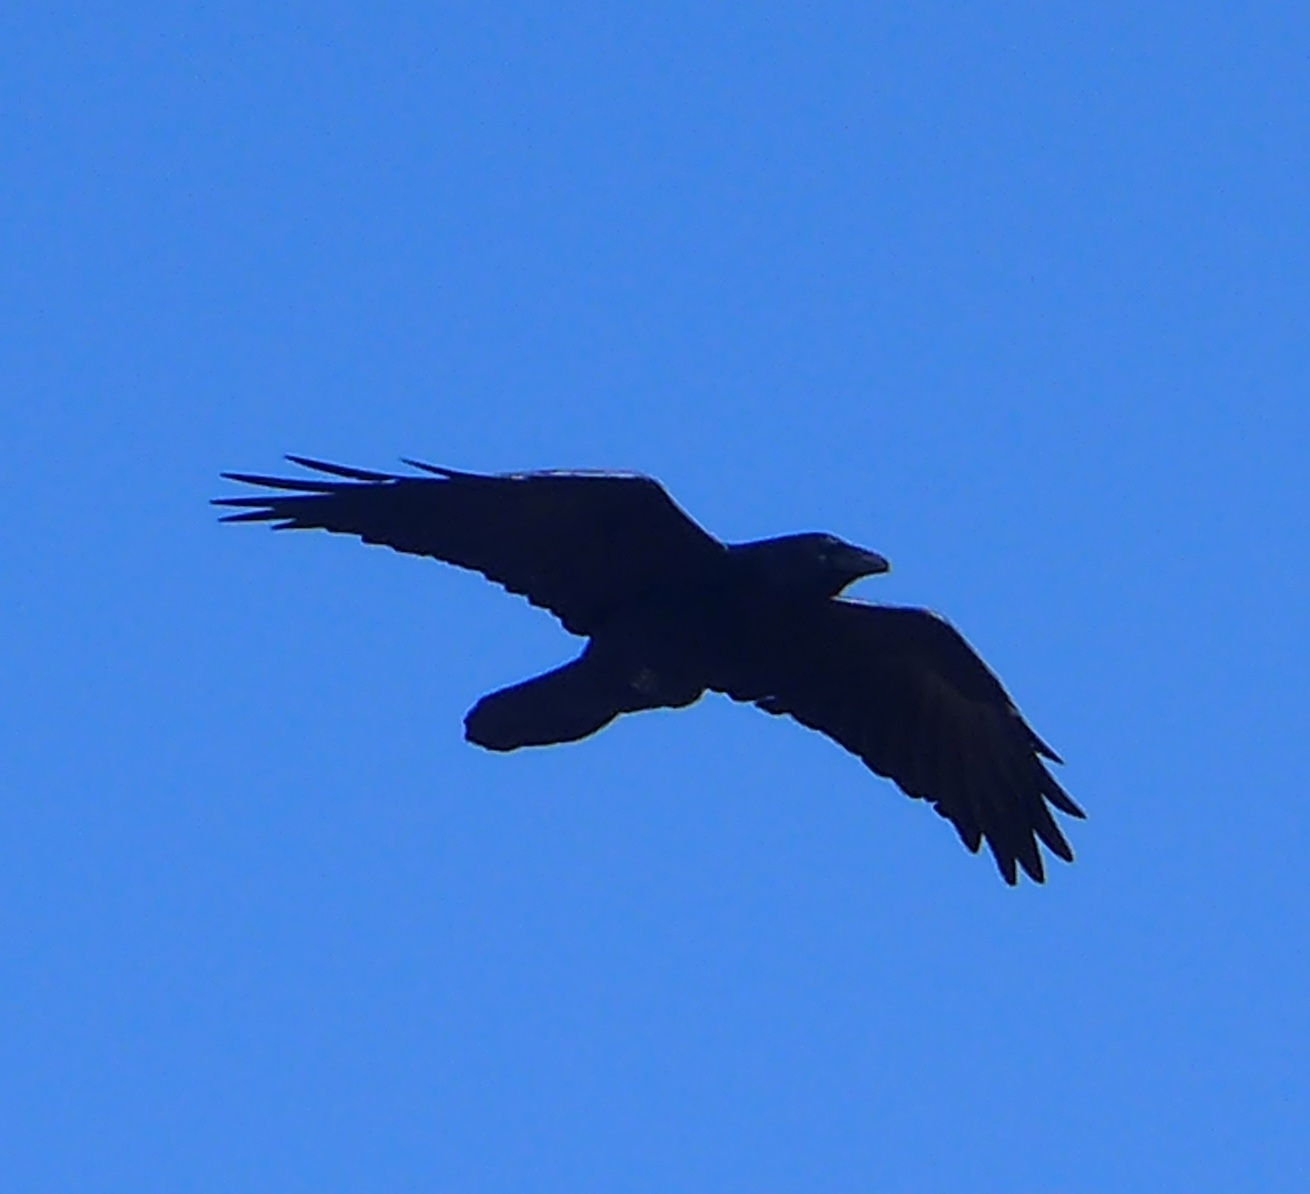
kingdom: Animalia
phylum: Chordata
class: Aves
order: Passeriformes
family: Corvidae
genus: Corvus
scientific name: Corvus corax
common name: Common raven
